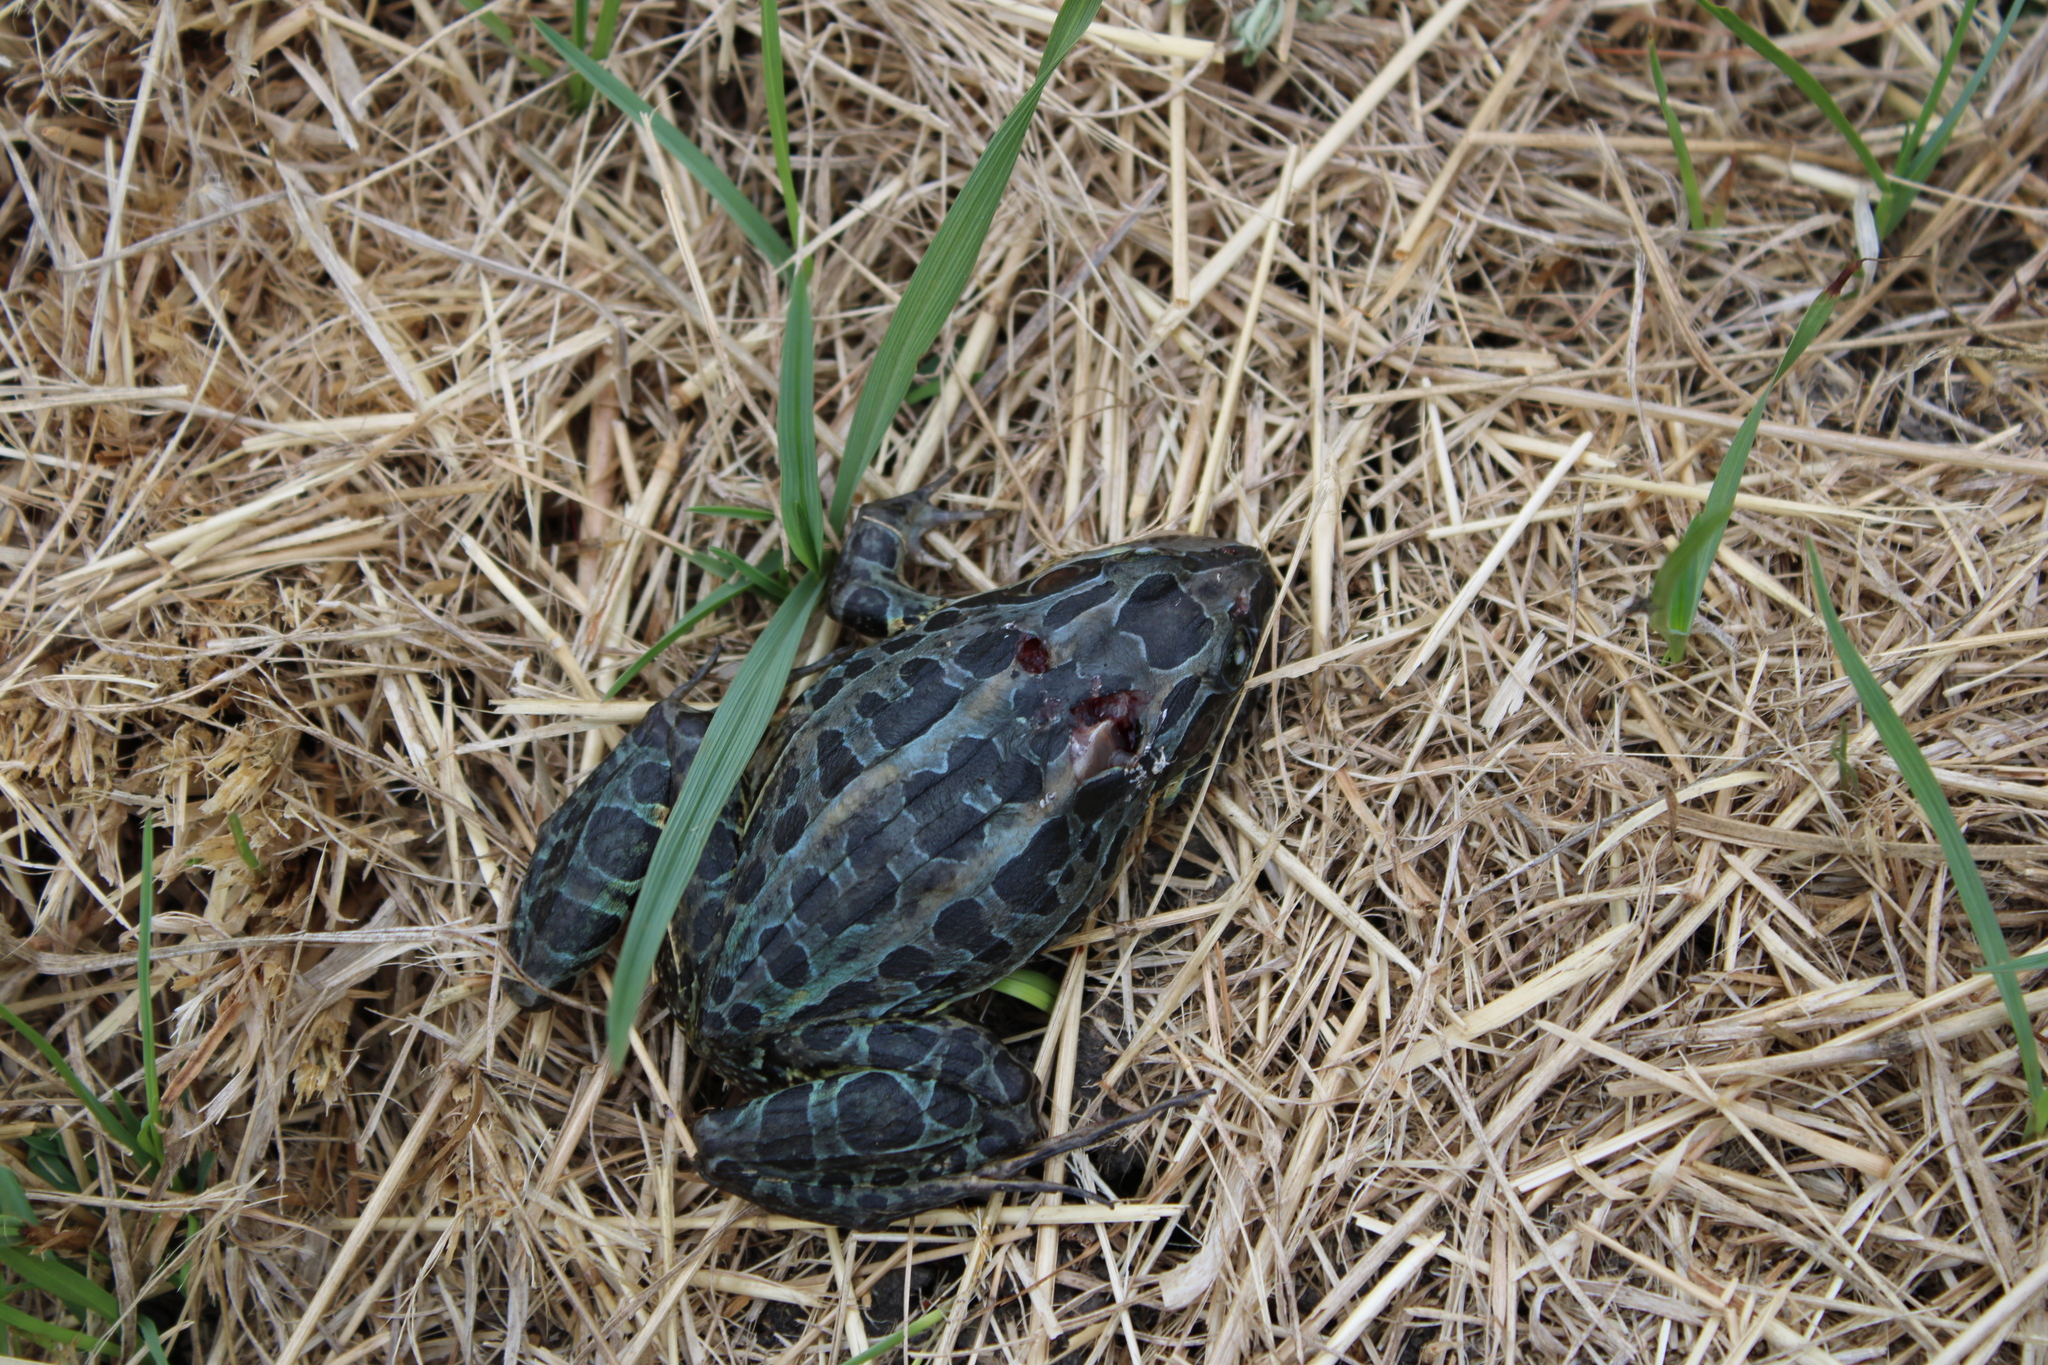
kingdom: Animalia
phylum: Chordata
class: Amphibia
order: Anura
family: Leptodactylidae
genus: Leptodactylus
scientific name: Leptodactylus luctator
